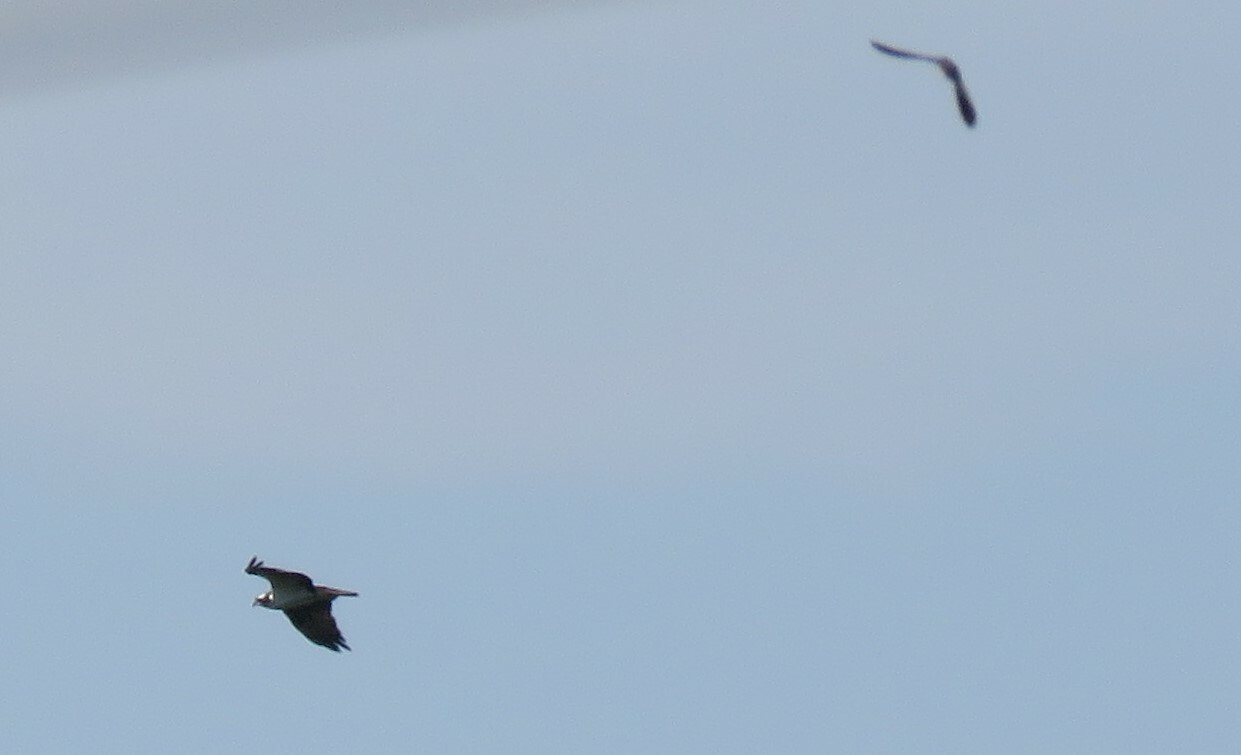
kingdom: Animalia
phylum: Chordata
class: Aves
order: Accipitriformes
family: Pandionidae
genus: Pandion
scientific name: Pandion haliaetus
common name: Osprey
